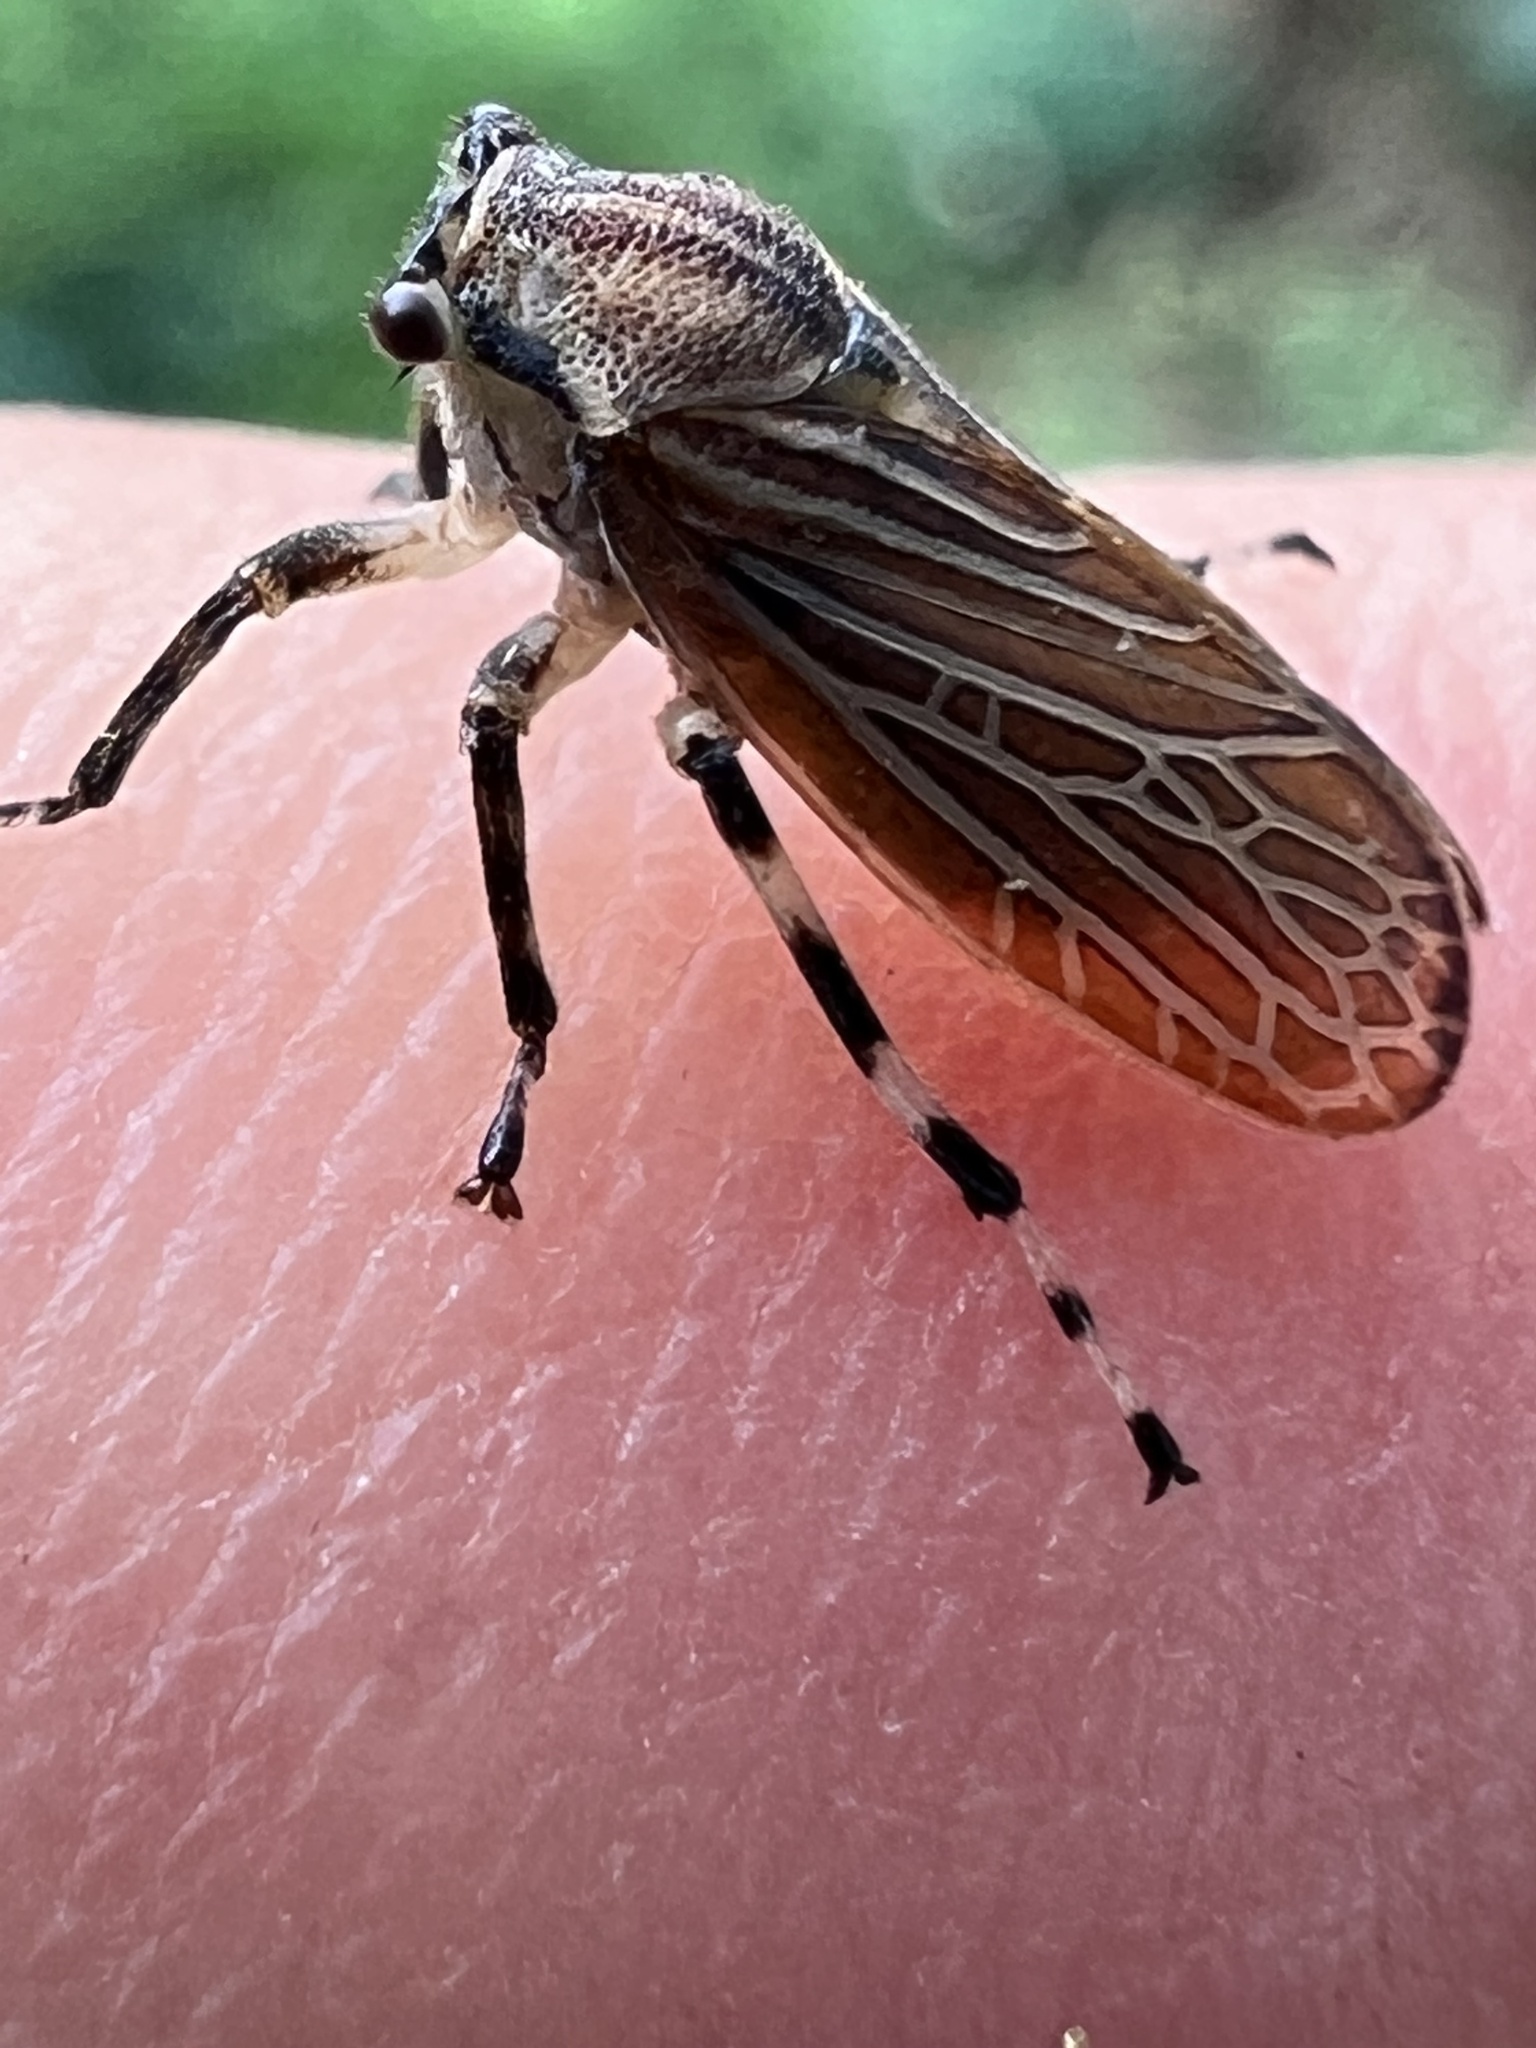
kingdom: Animalia
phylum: Arthropoda
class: Insecta
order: Hemiptera
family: Aetalionidae
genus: Aetalion
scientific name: Aetalion reticulatum
